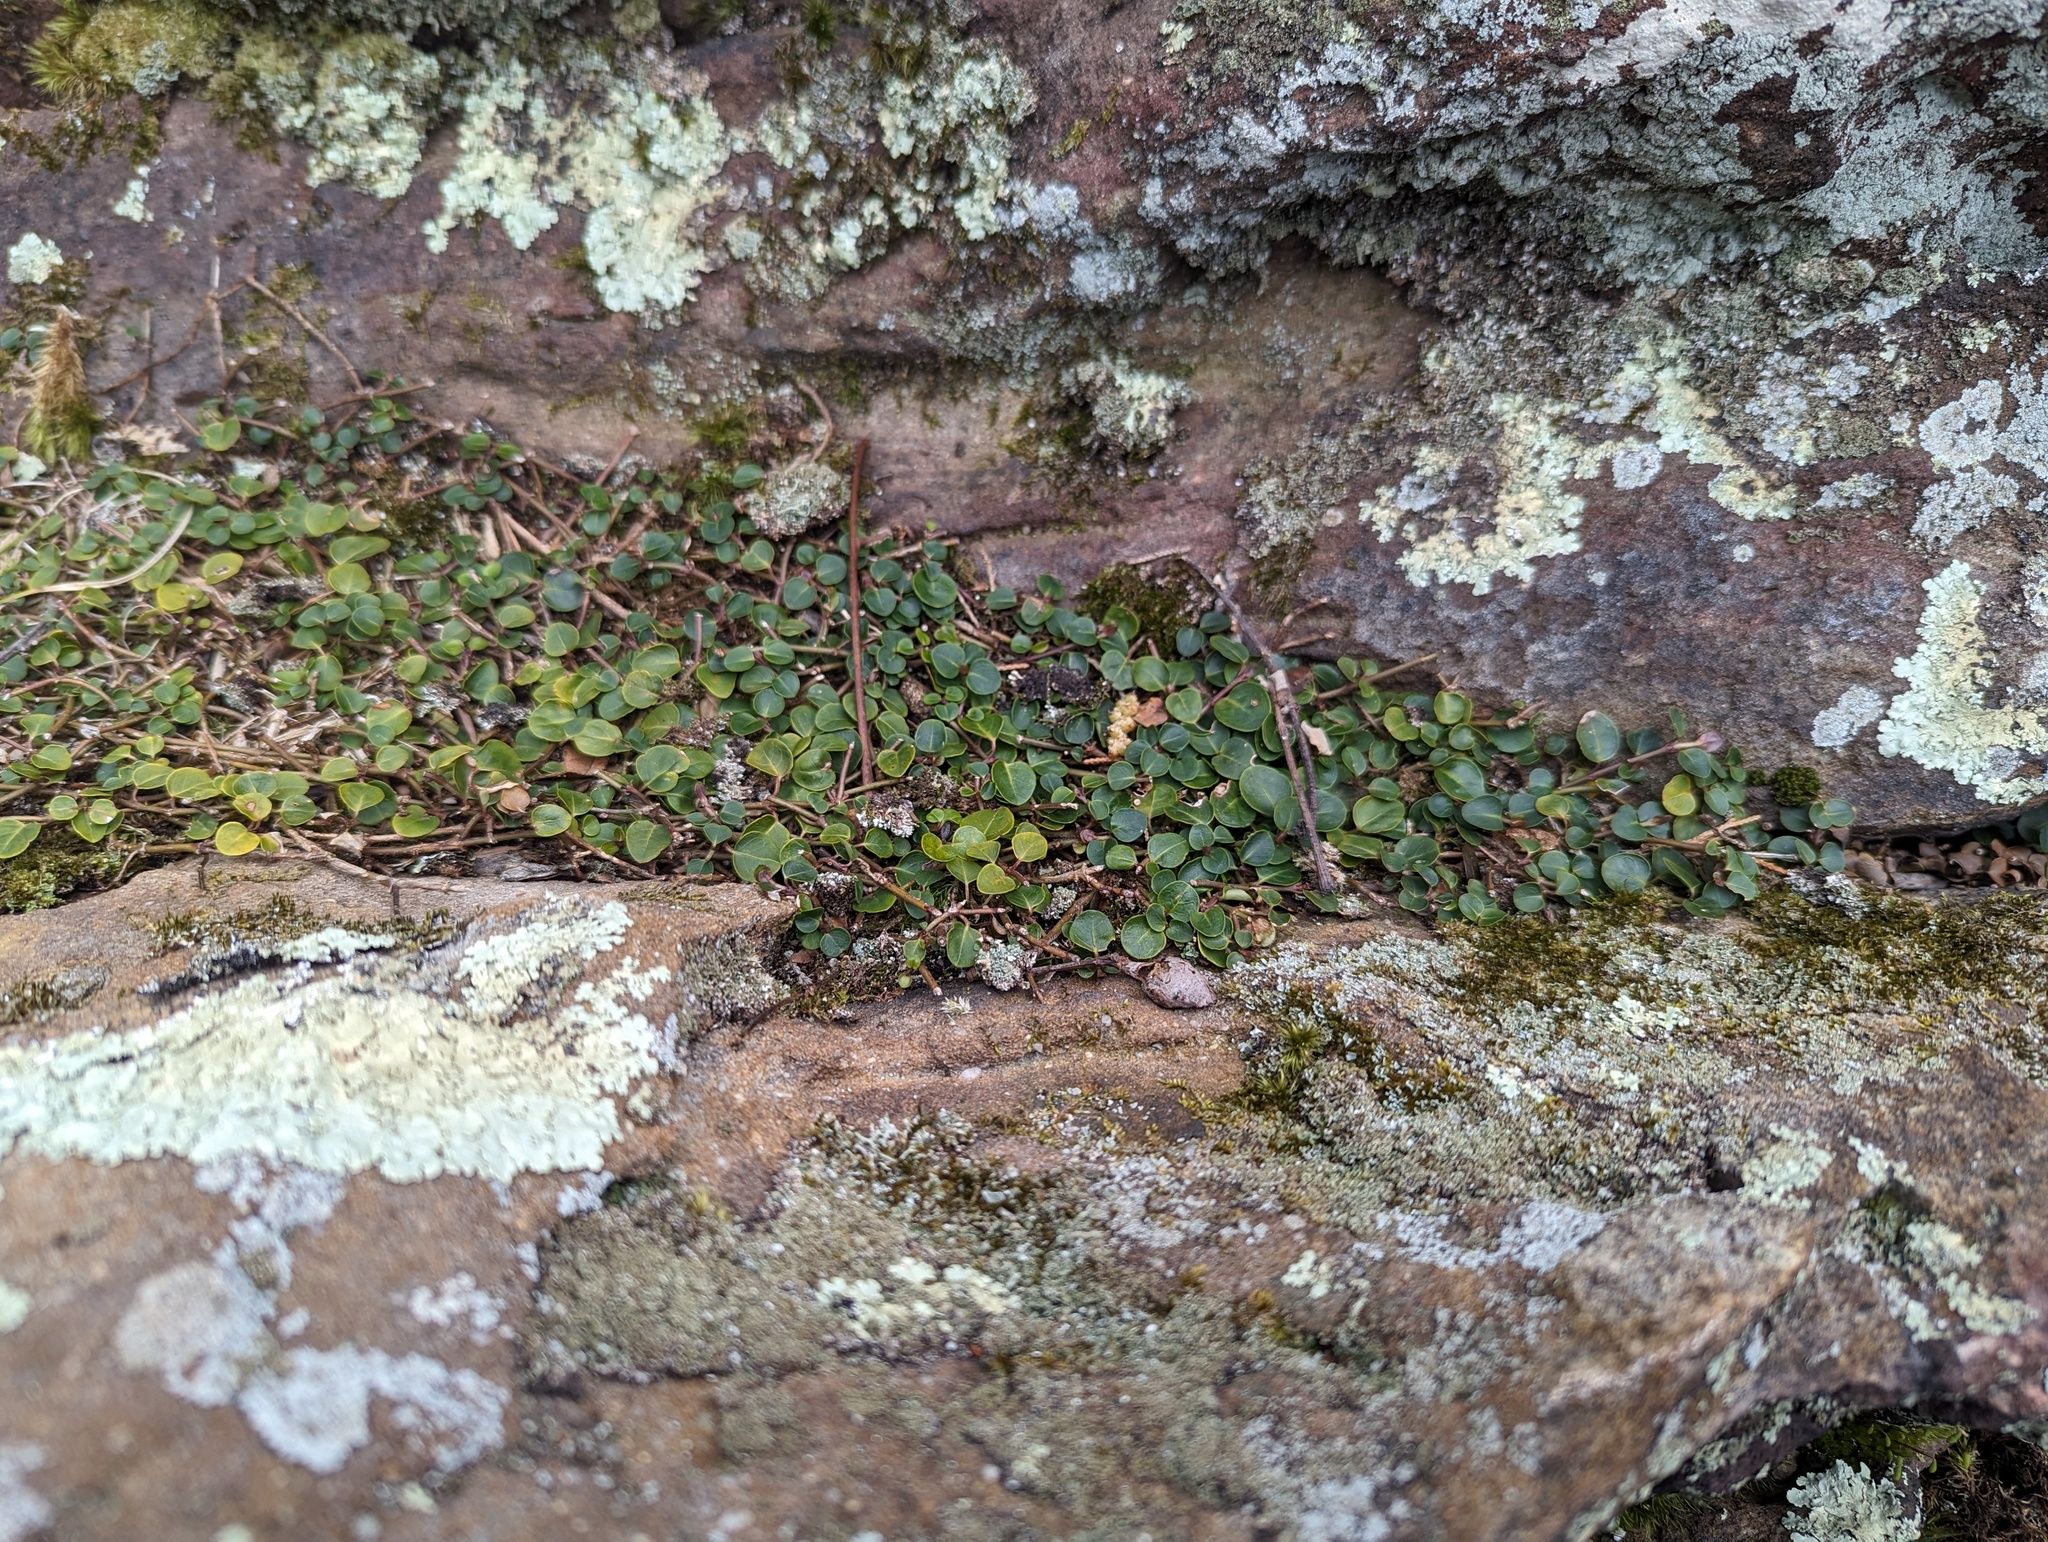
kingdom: Plantae
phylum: Tracheophyta
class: Magnoliopsida
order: Gentianales
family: Rubiaceae
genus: Mitchella
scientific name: Mitchella repens
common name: Partridge-berry
